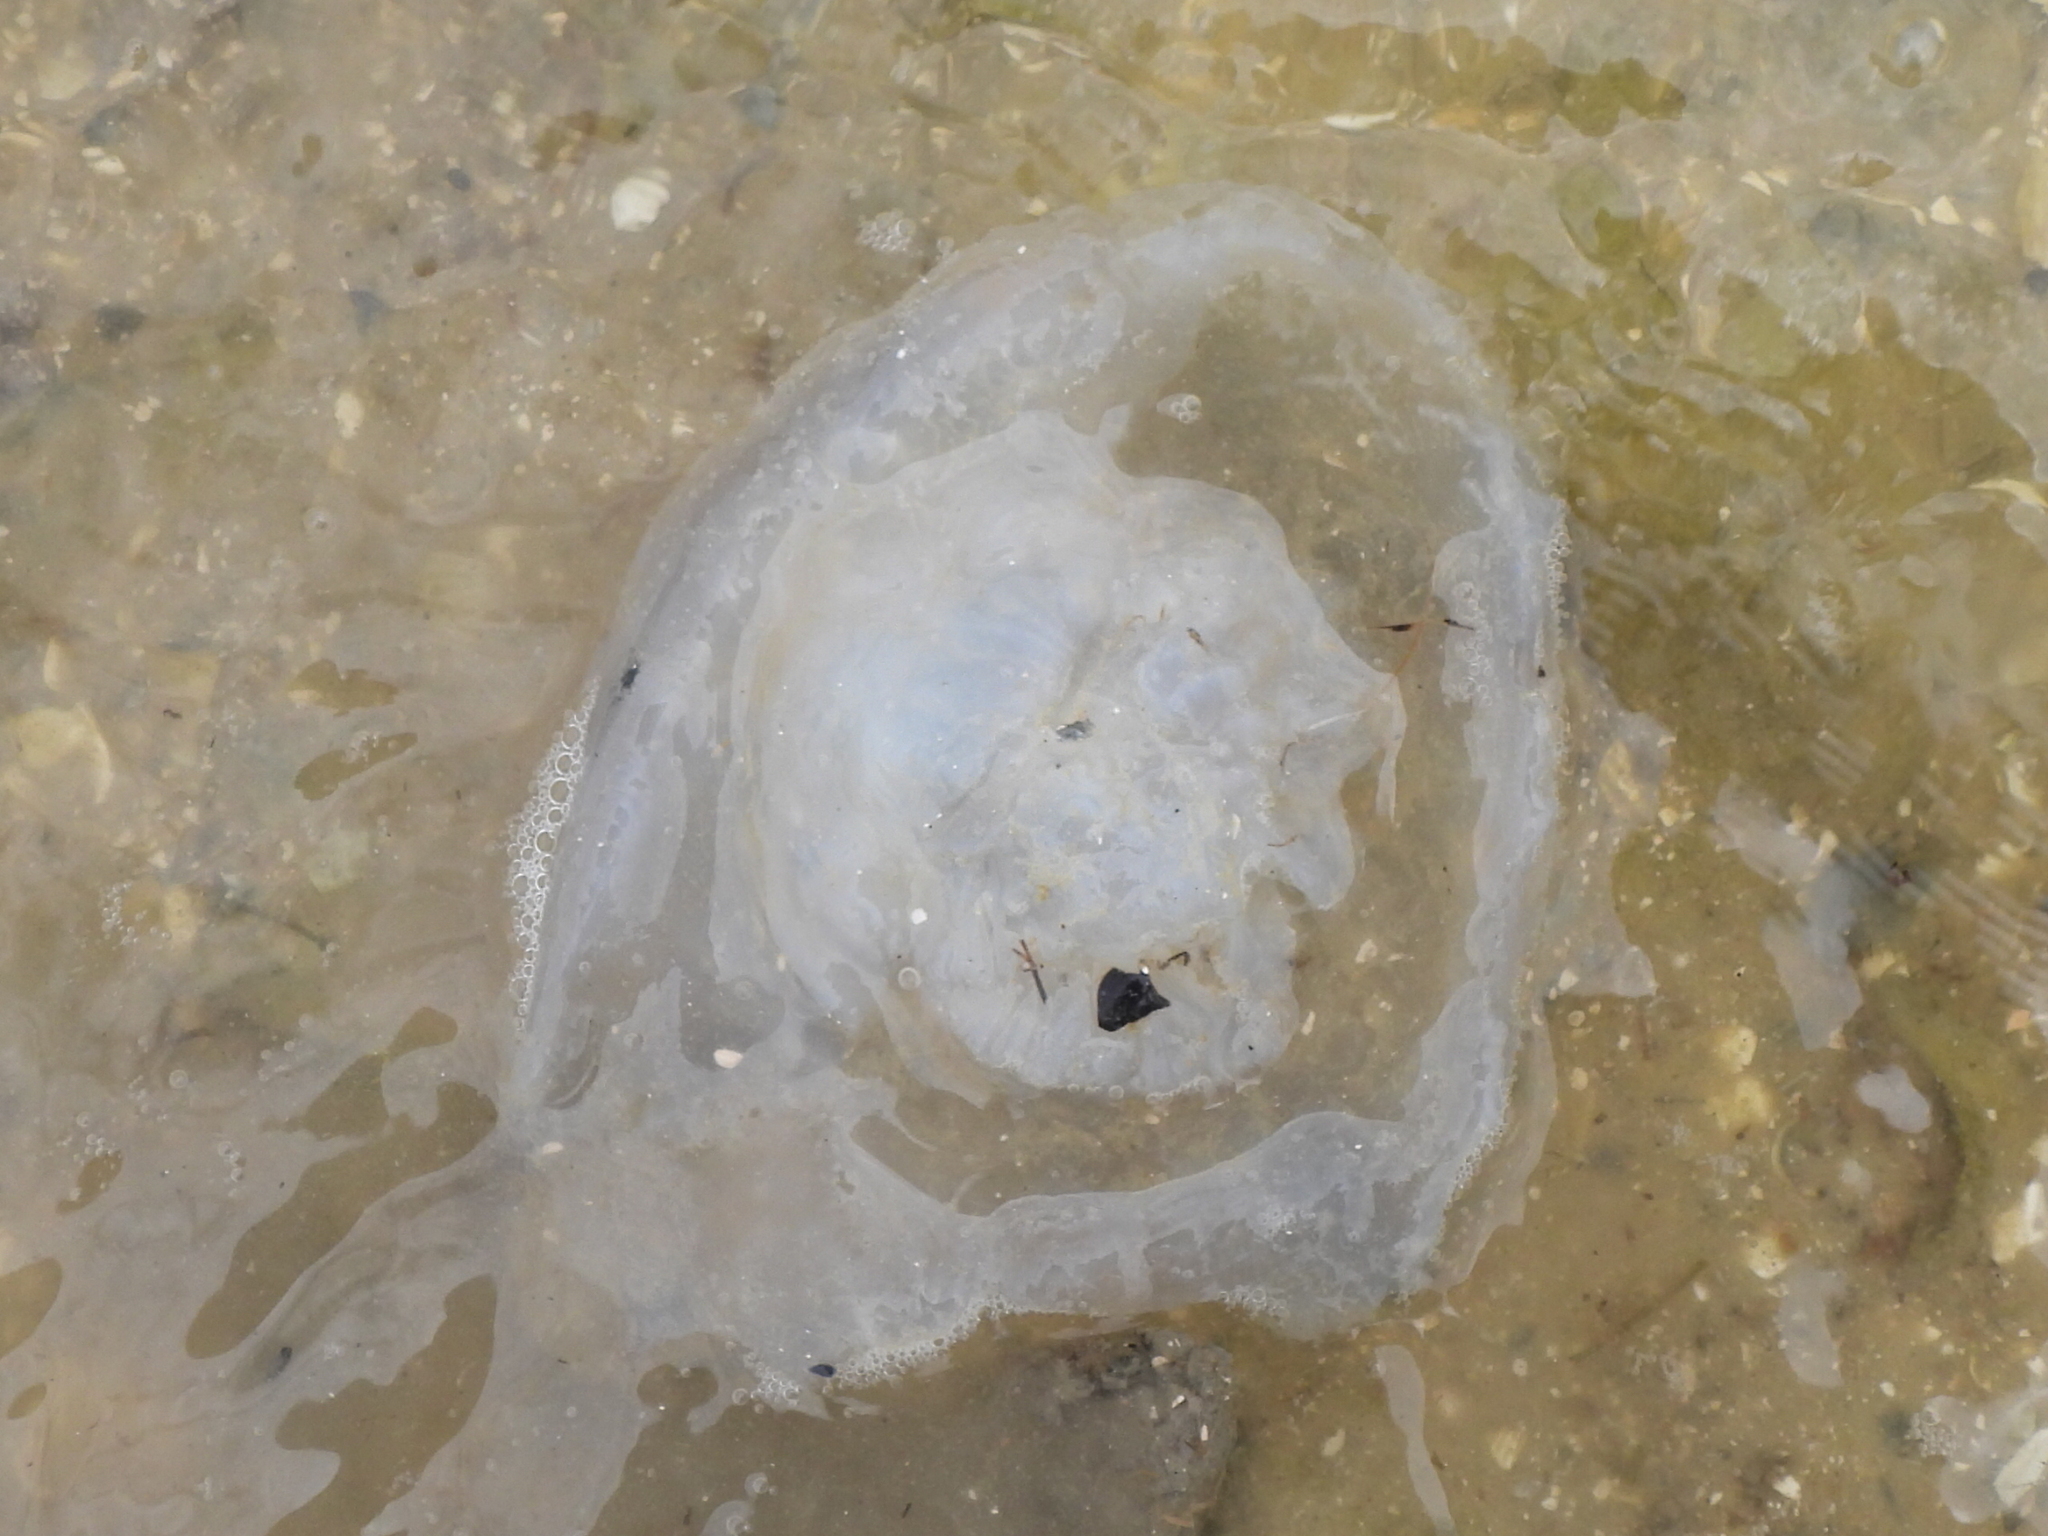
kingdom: Animalia
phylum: Cnidaria
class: Scyphozoa
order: Rhizostomeae
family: Stomolophidae
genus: Stomolophus
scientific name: Stomolophus meleagris
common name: Cabbagehead
